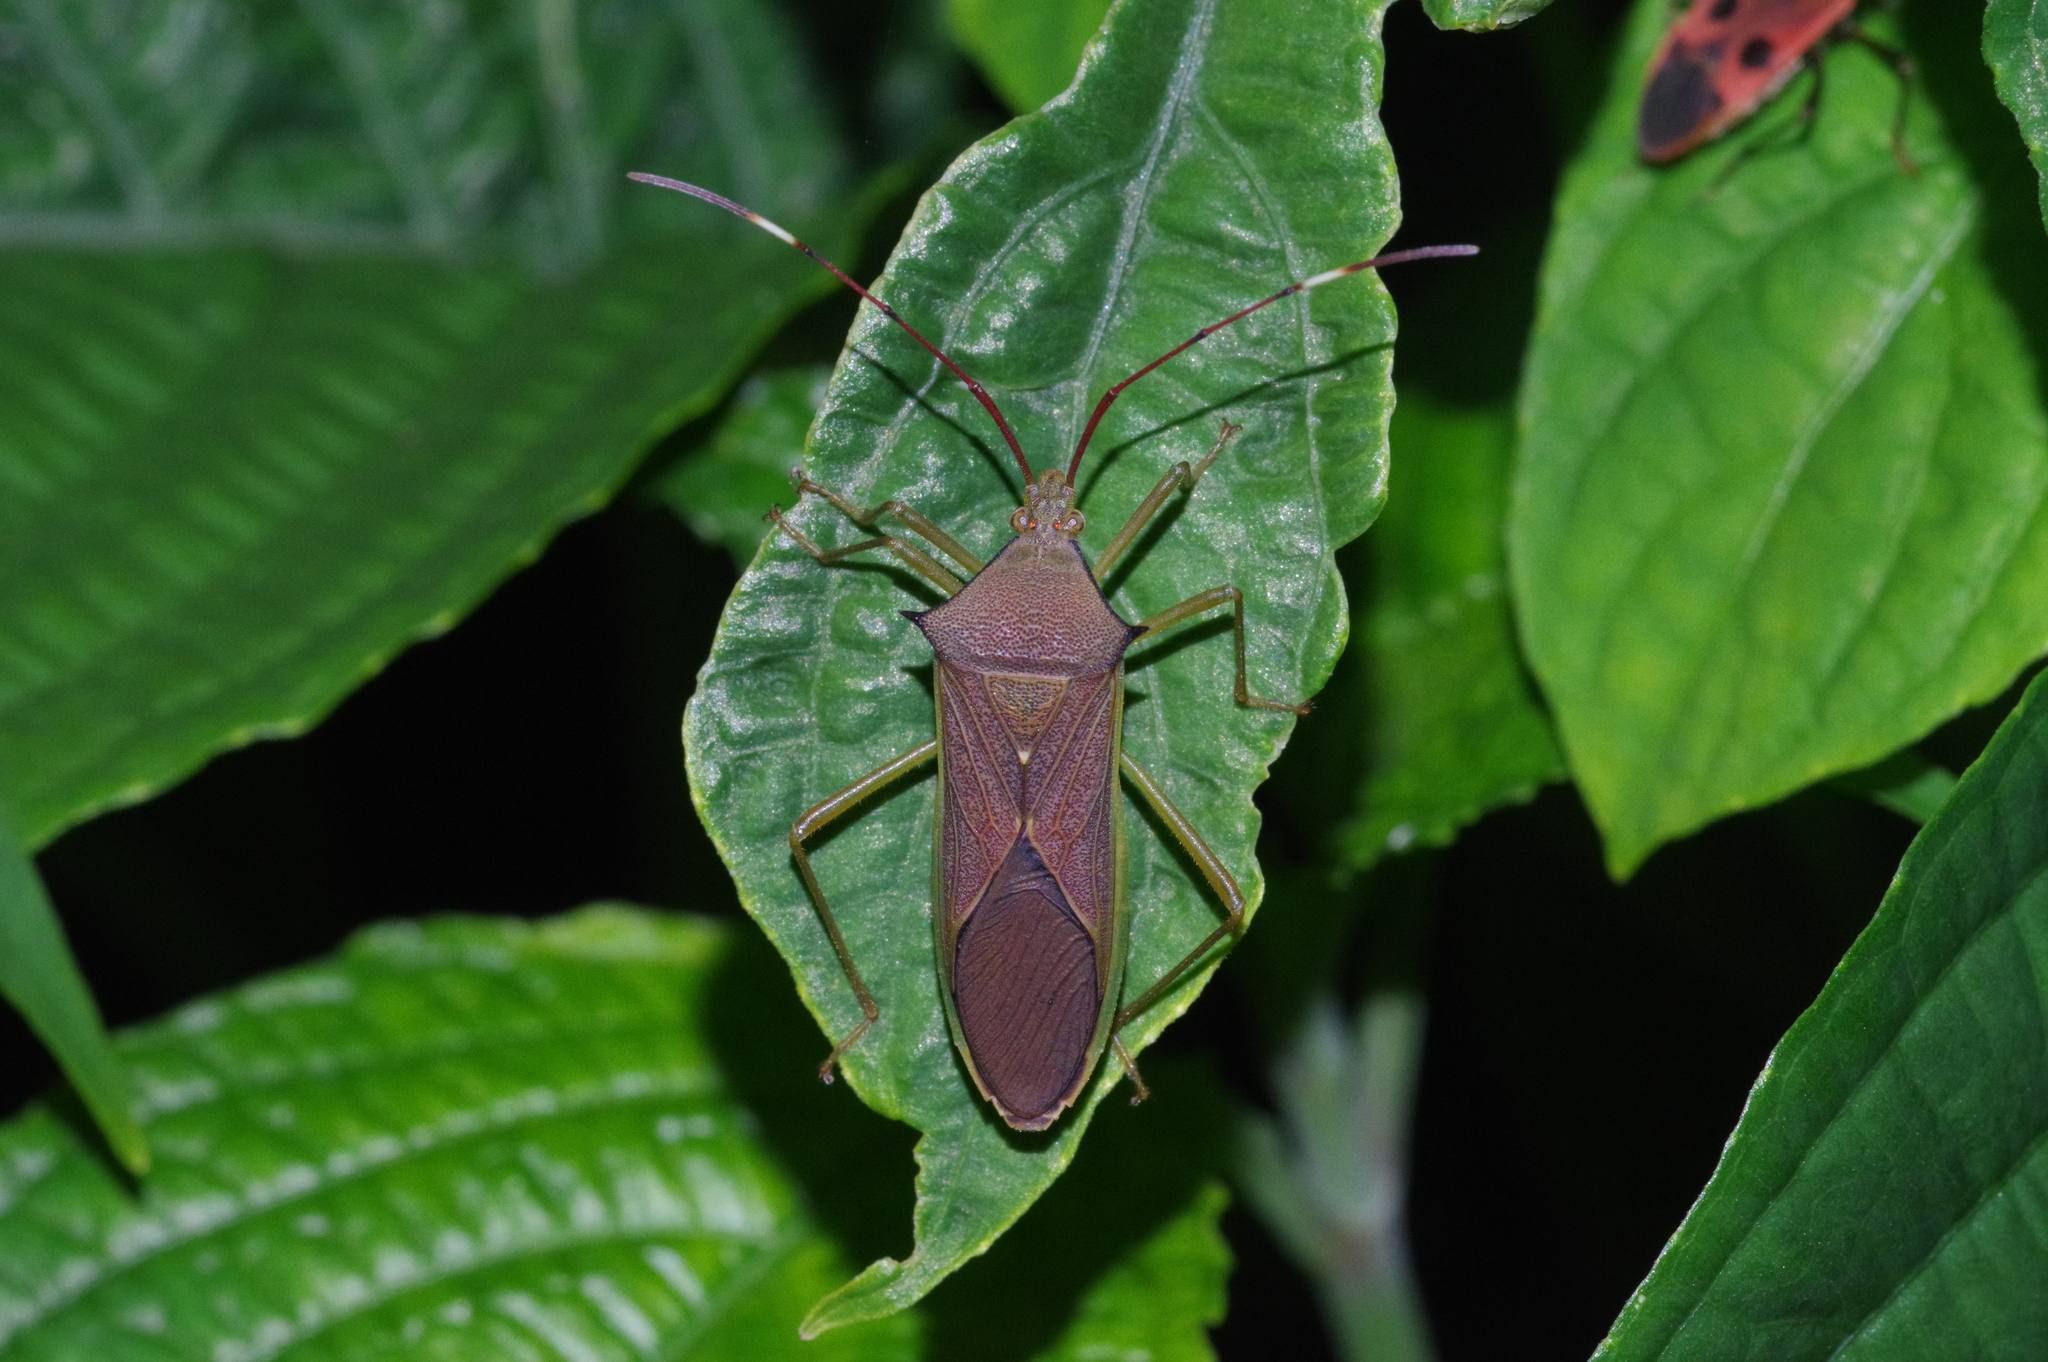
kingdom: Animalia
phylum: Arthropoda
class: Insecta
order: Hemiptera
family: Coreidae
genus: Paradasynus
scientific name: Paradasynus spinosus
